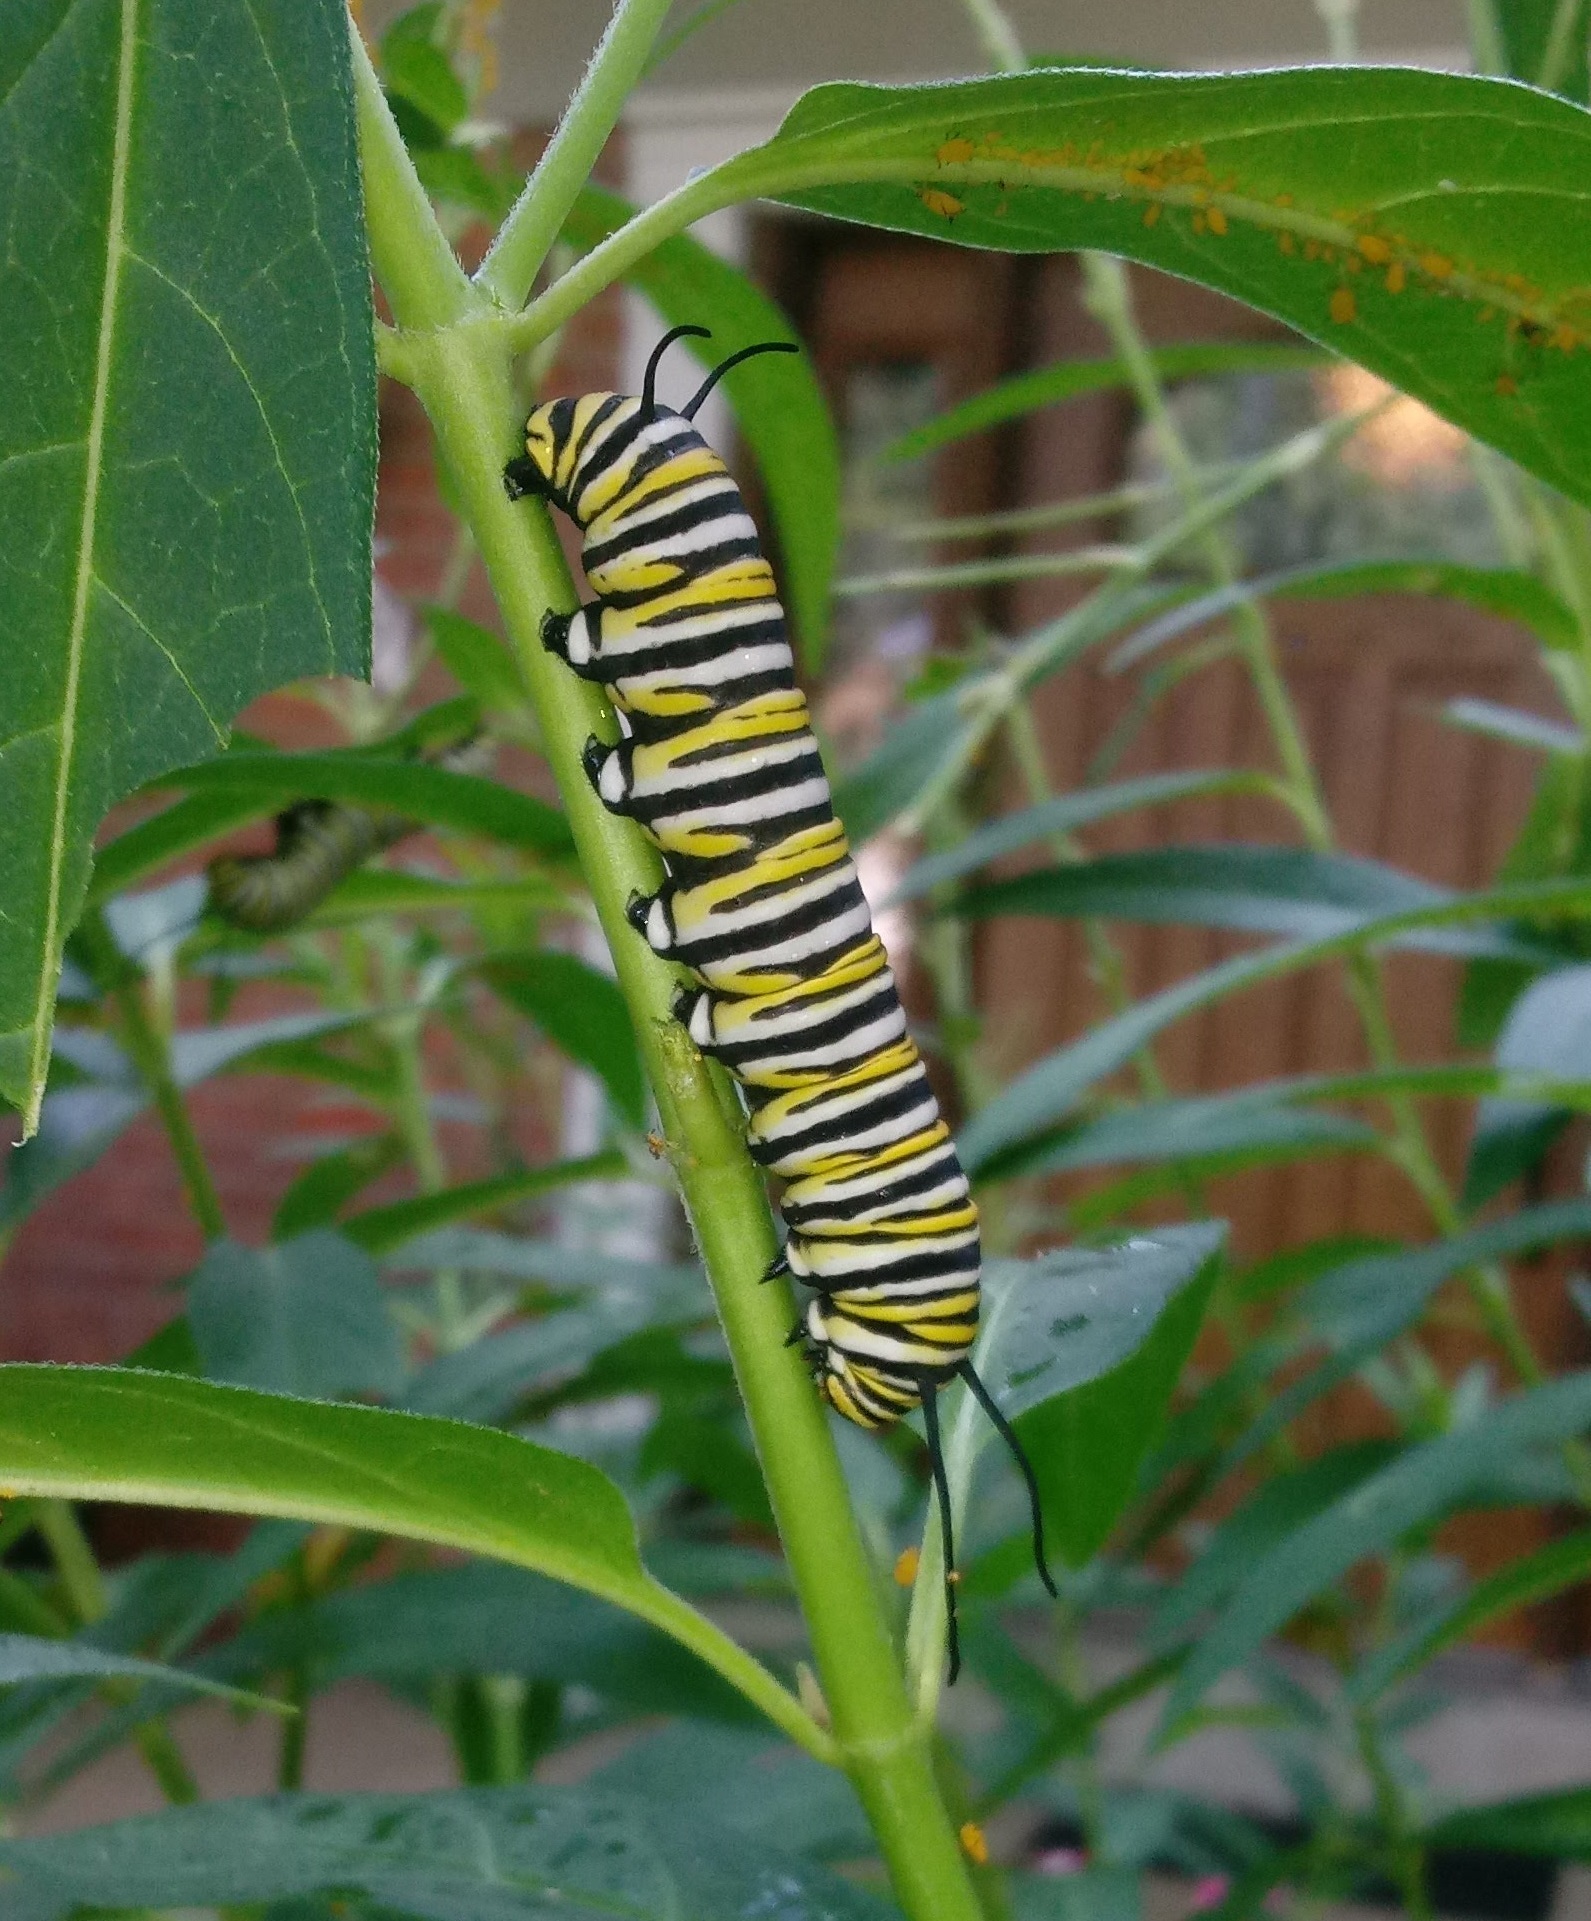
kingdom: Animalia
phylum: Arthropoda
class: Insecta
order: Lepidoptera
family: Nymphalidae
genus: Danaus
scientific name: Danaus plexippus
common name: Monarch
